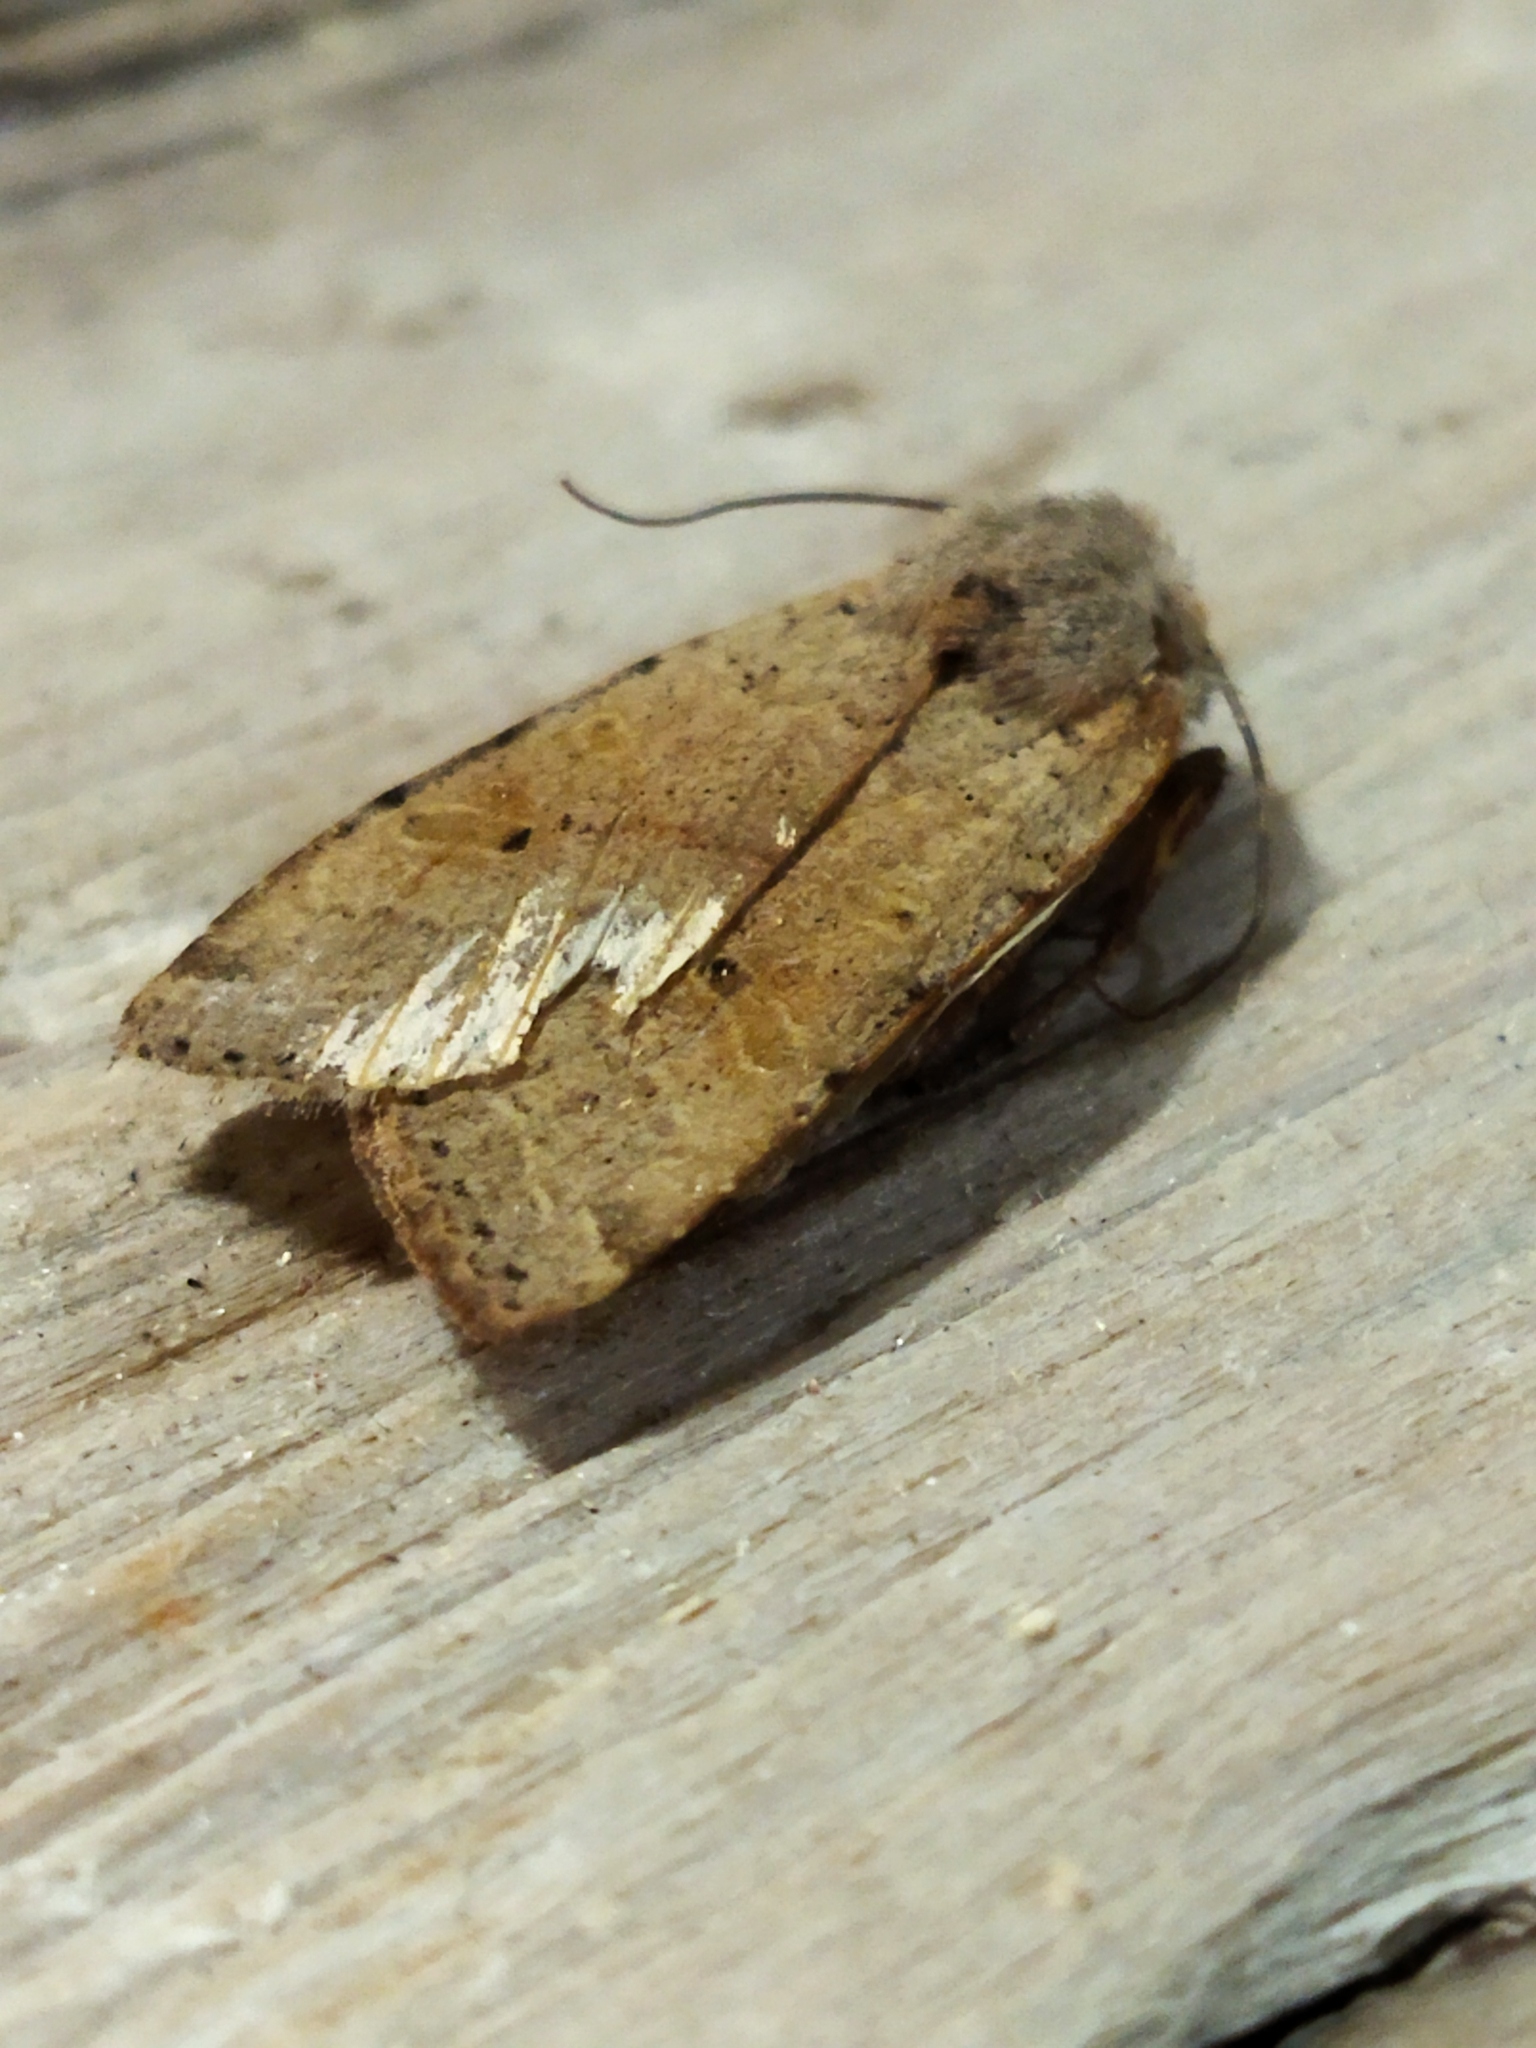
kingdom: Animalia
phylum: Arthropoda
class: Insecta
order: Lepidoptera
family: Noctuidae
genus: Agrochola
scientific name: Agrochola lychnidis
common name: Beaded chestnut
